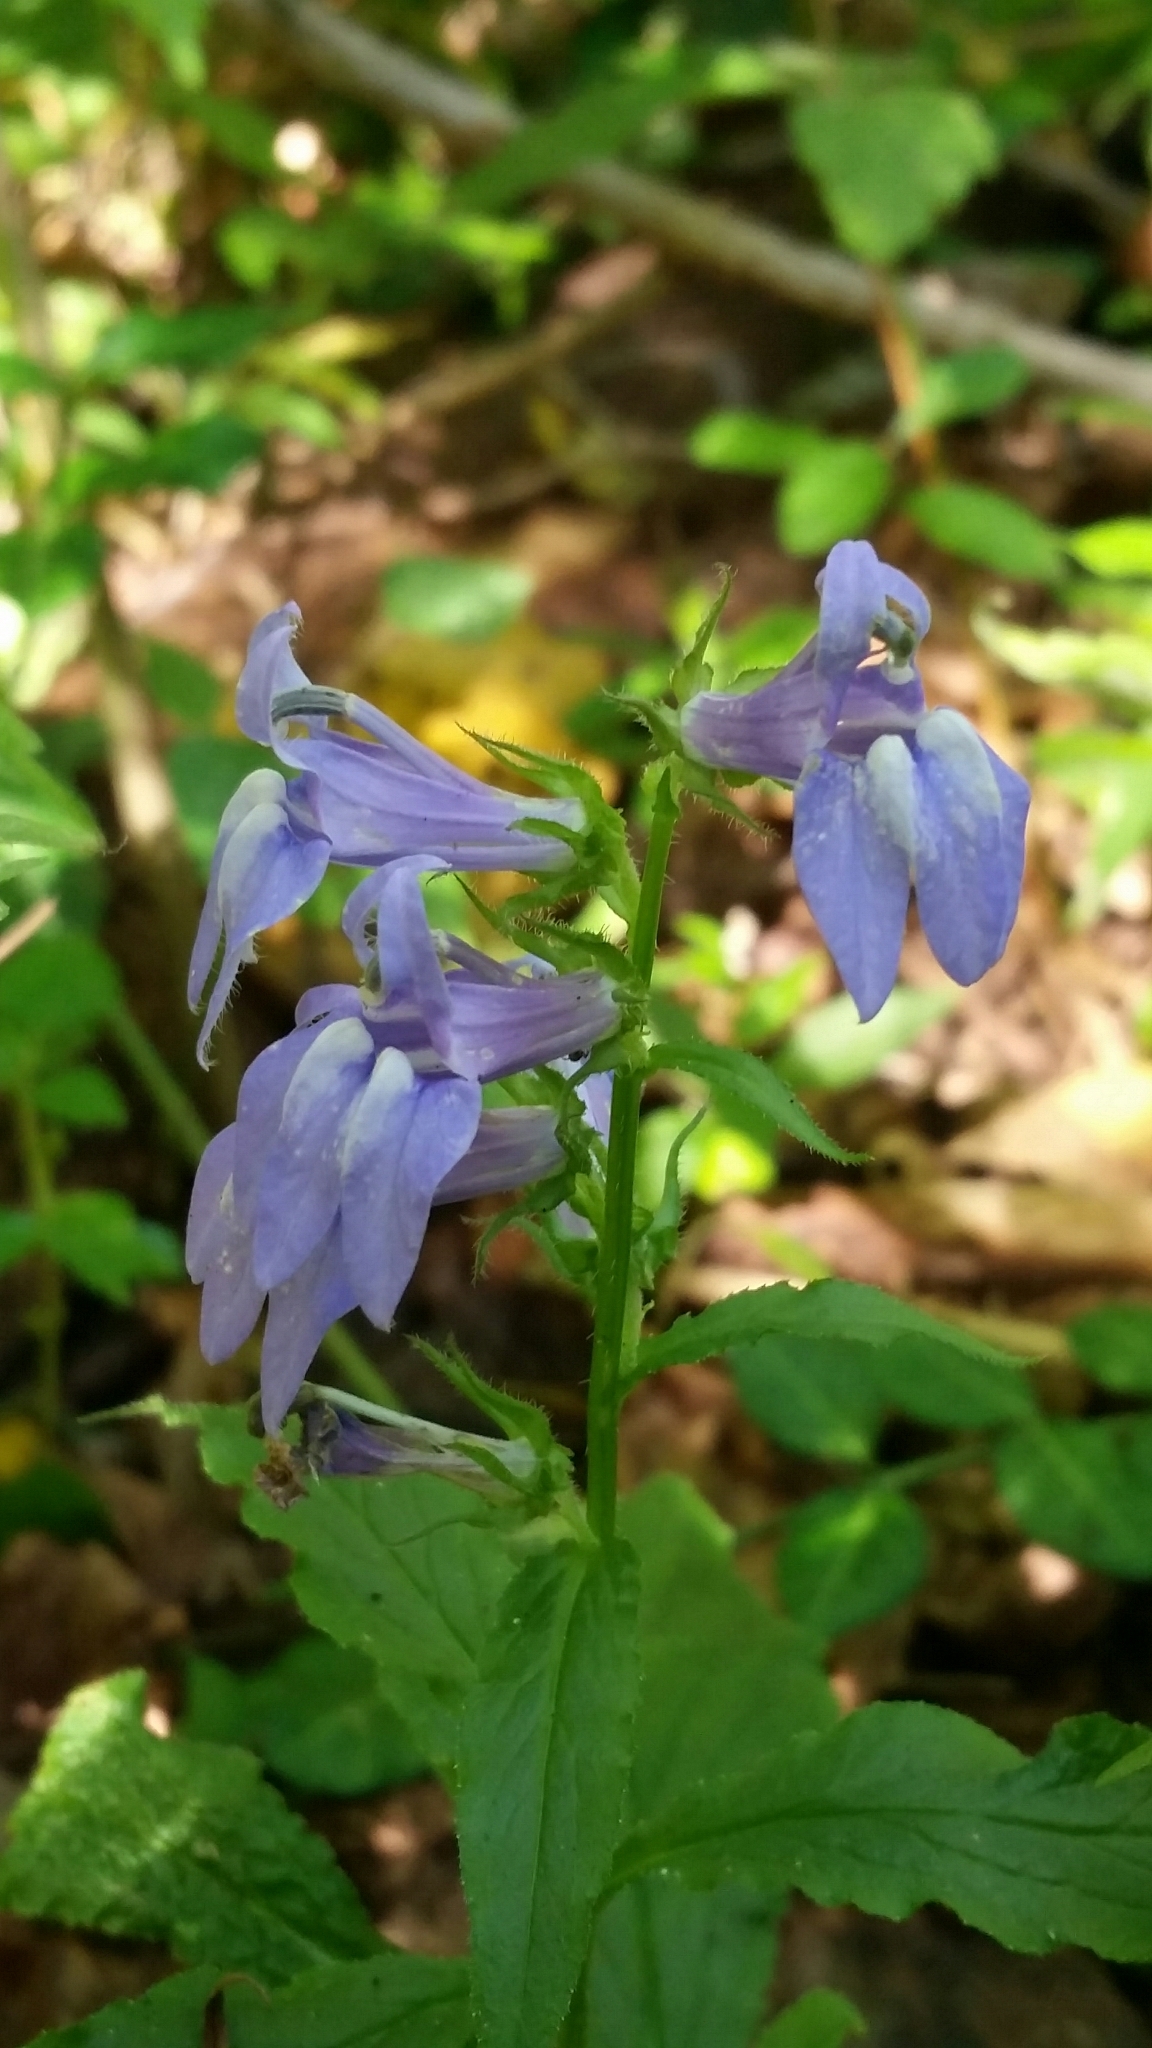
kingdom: Plantae
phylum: Tracheophyta
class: Magnoliopsida
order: Asterales
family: Campanulaceae
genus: Lobelia
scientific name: Lobelia siphilitica
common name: Great lobelia
